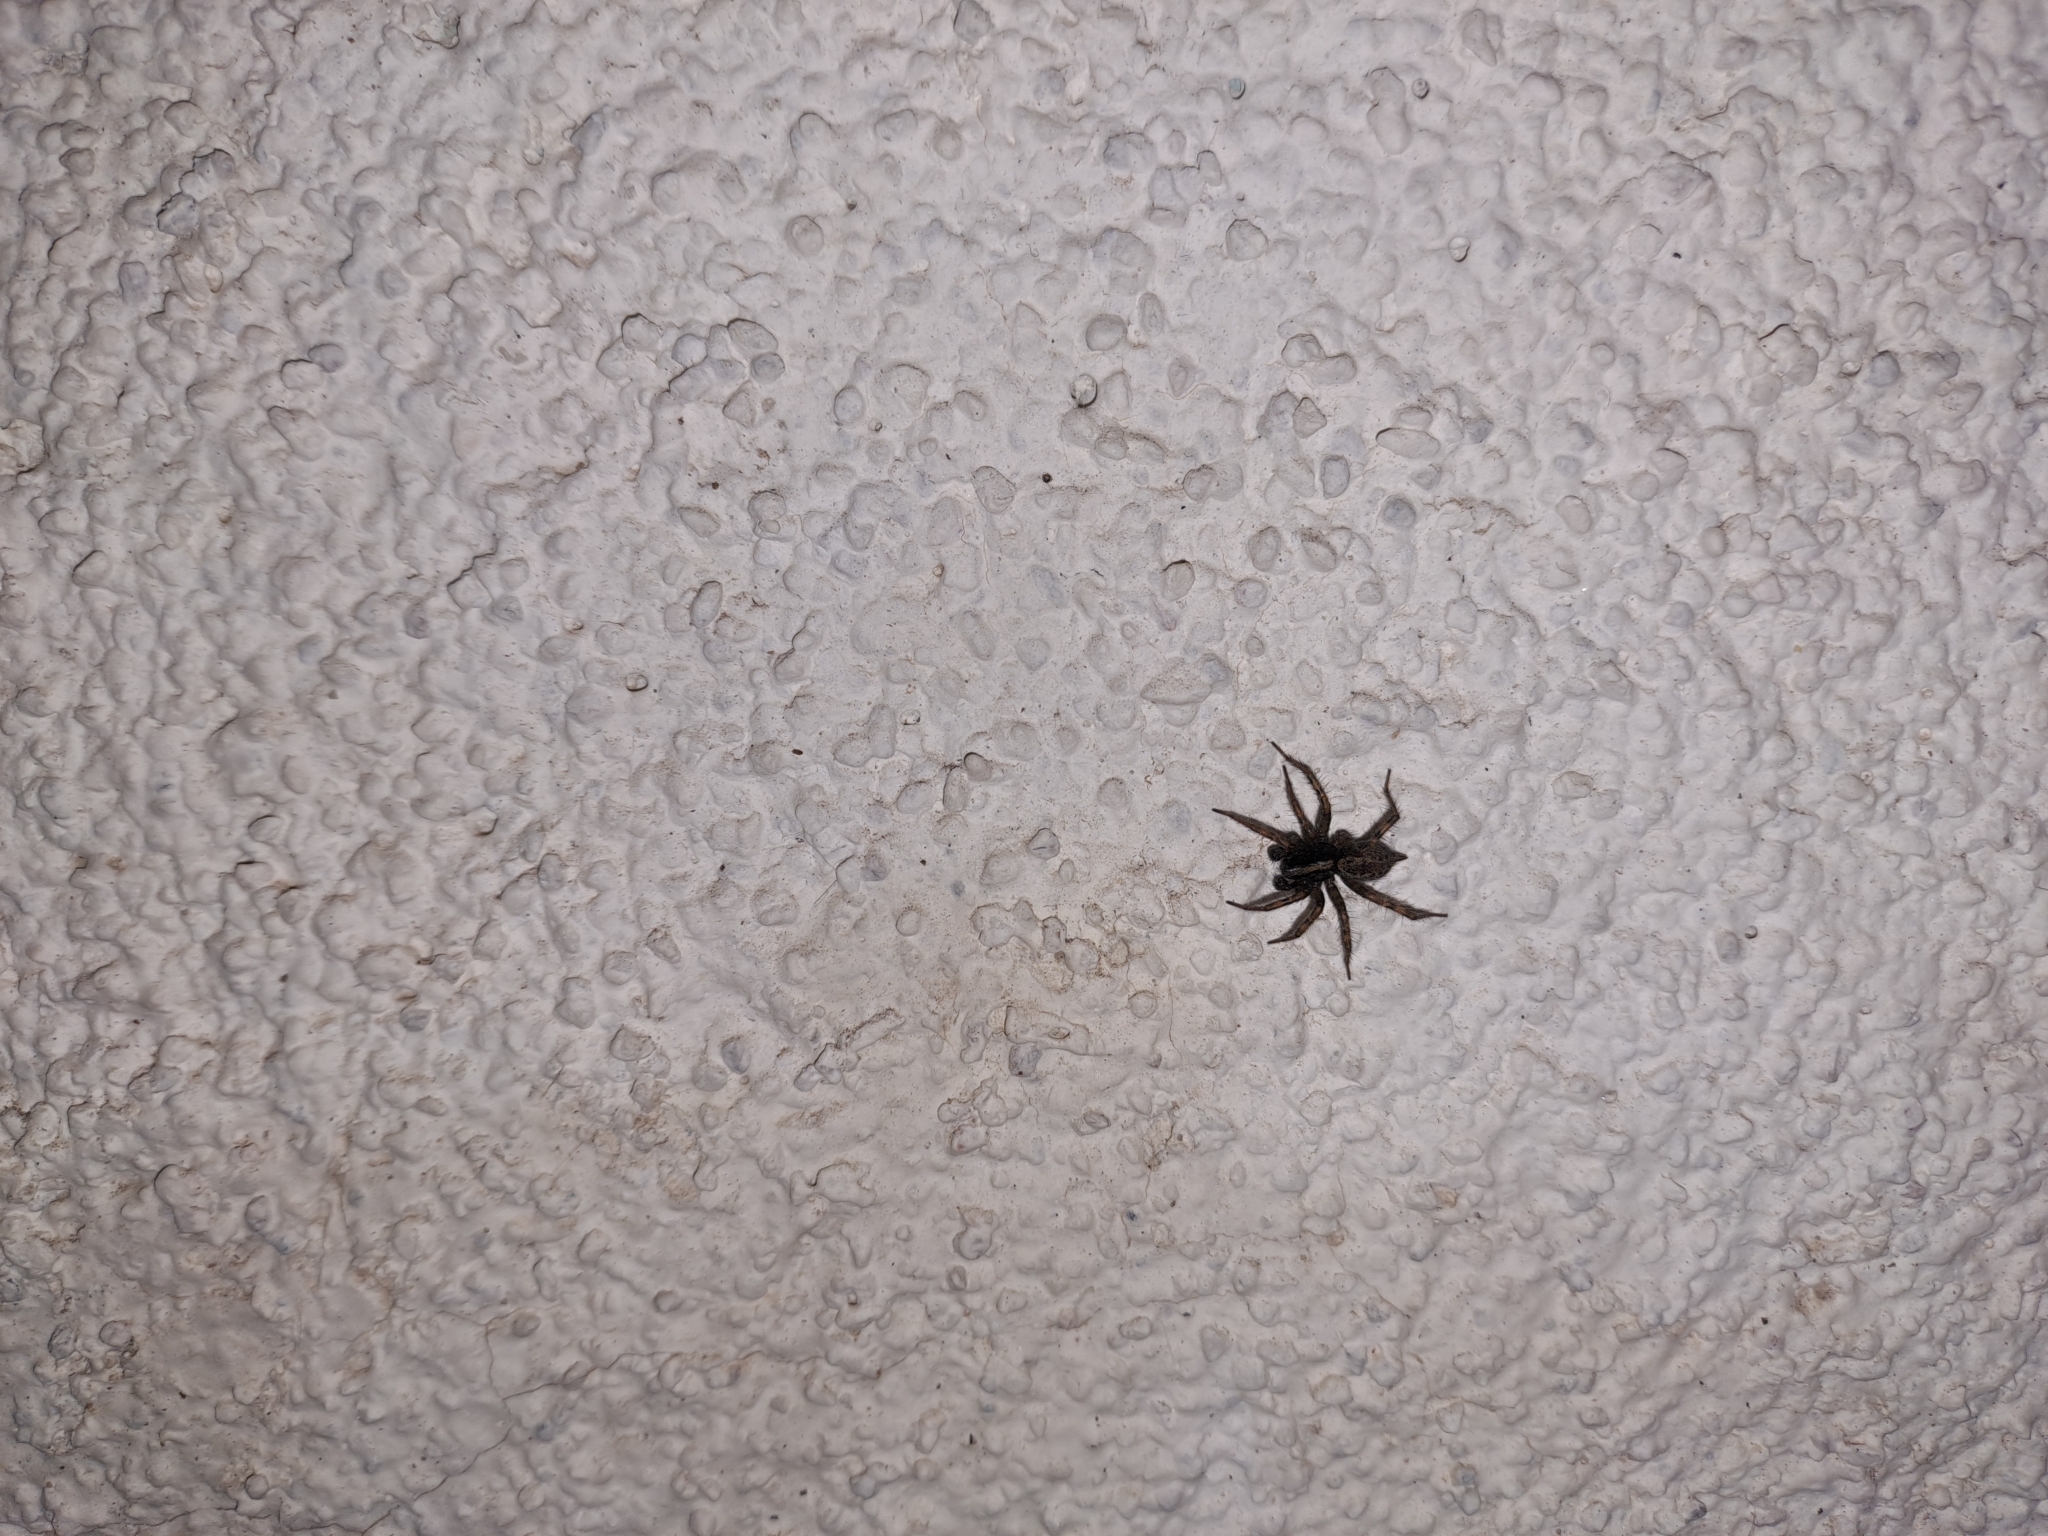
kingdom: Animalia
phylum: Arthropoda
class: Arachnida
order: Araneae
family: Agelenidae
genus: Maimuna
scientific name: Maimuna vestita
